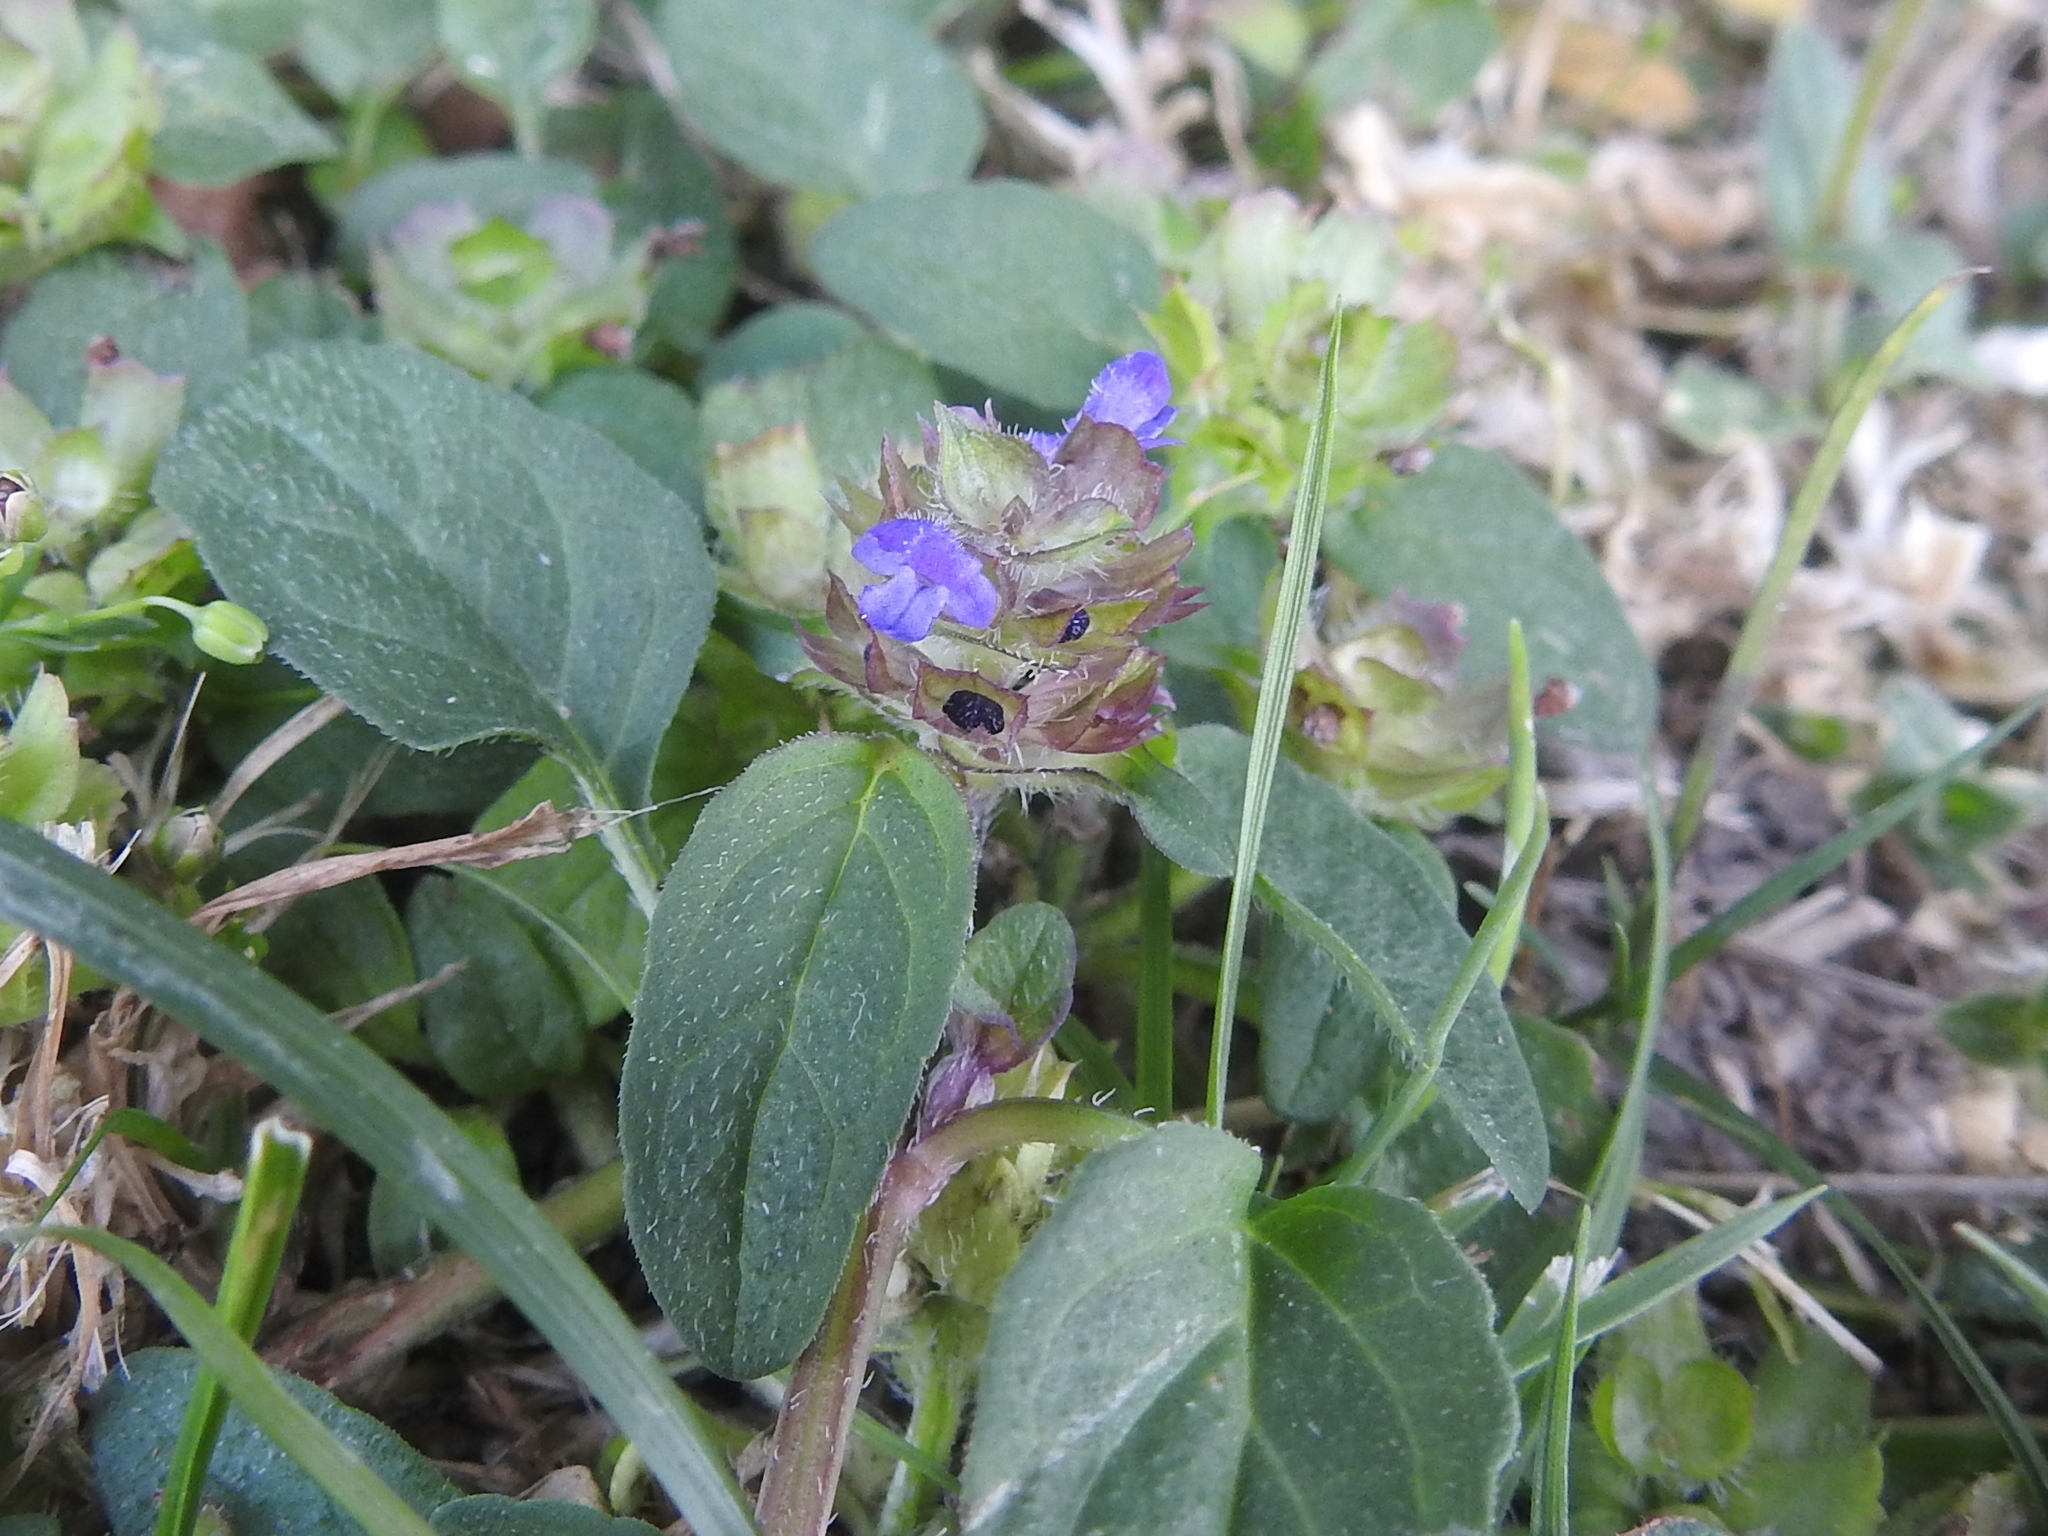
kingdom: Plantae
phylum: Tracheophyta
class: Magnoliopsida
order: Lamiales
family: Lamiaceae
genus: Prunella
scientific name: Prunella vulgaris
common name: Heal-all
